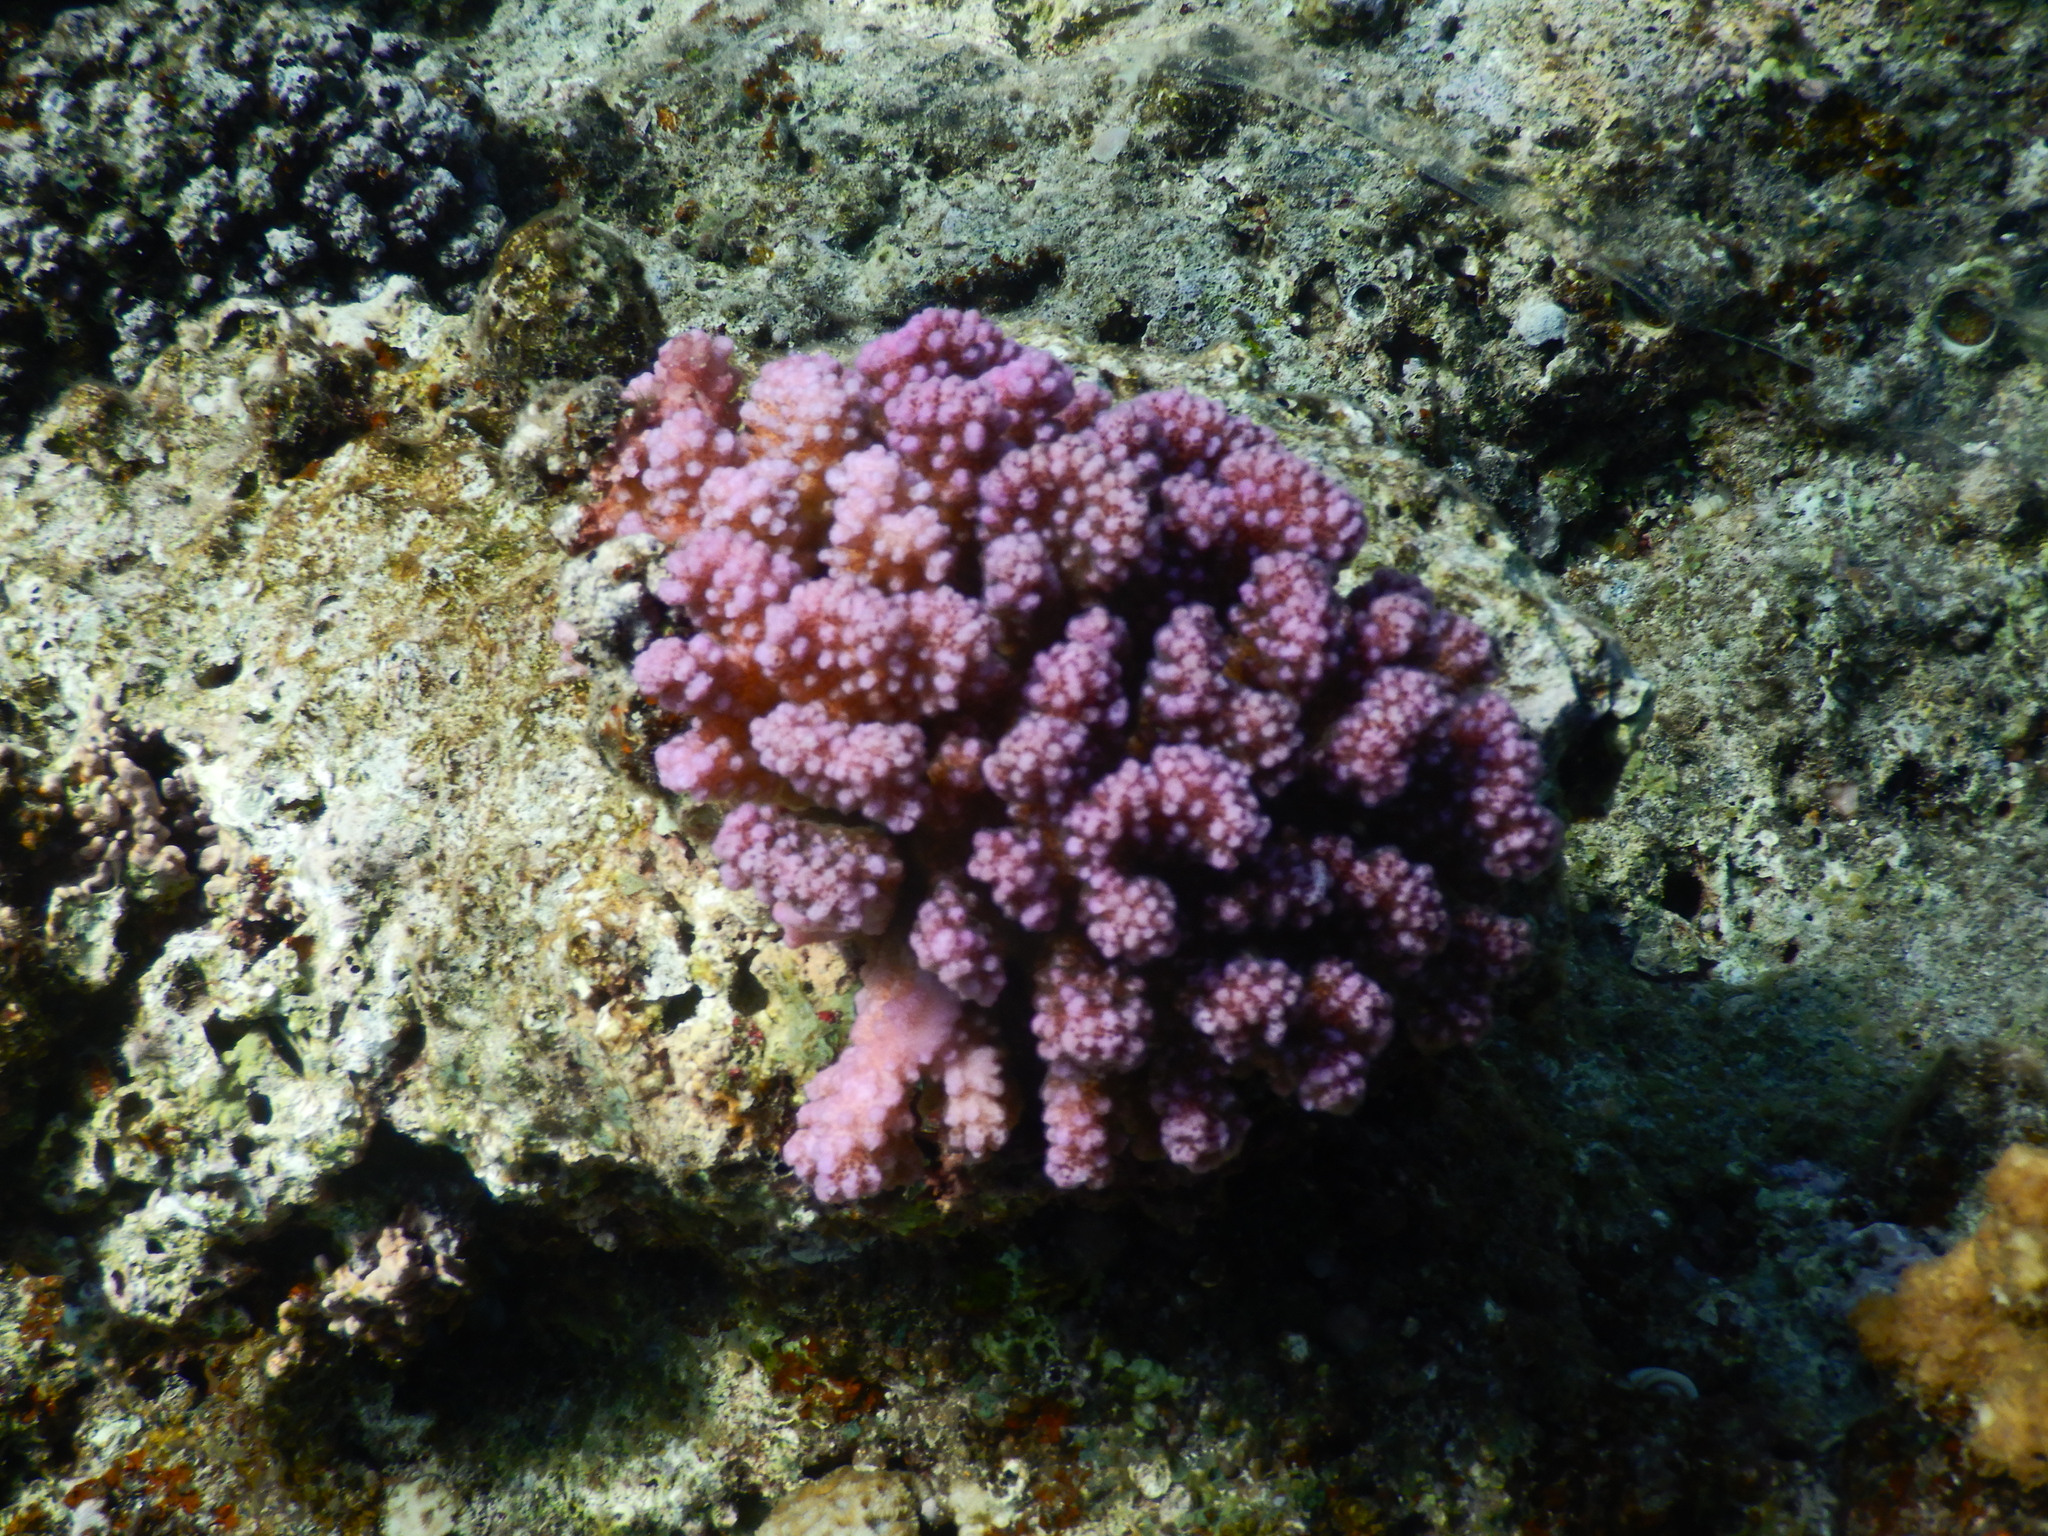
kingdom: Animalia
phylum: Cnidaria
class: Anthozoa
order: Scleractinia
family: Pocilloporidae
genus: Pocillopora
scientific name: Pocillopora verrucosa
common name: Cauliflower coral
